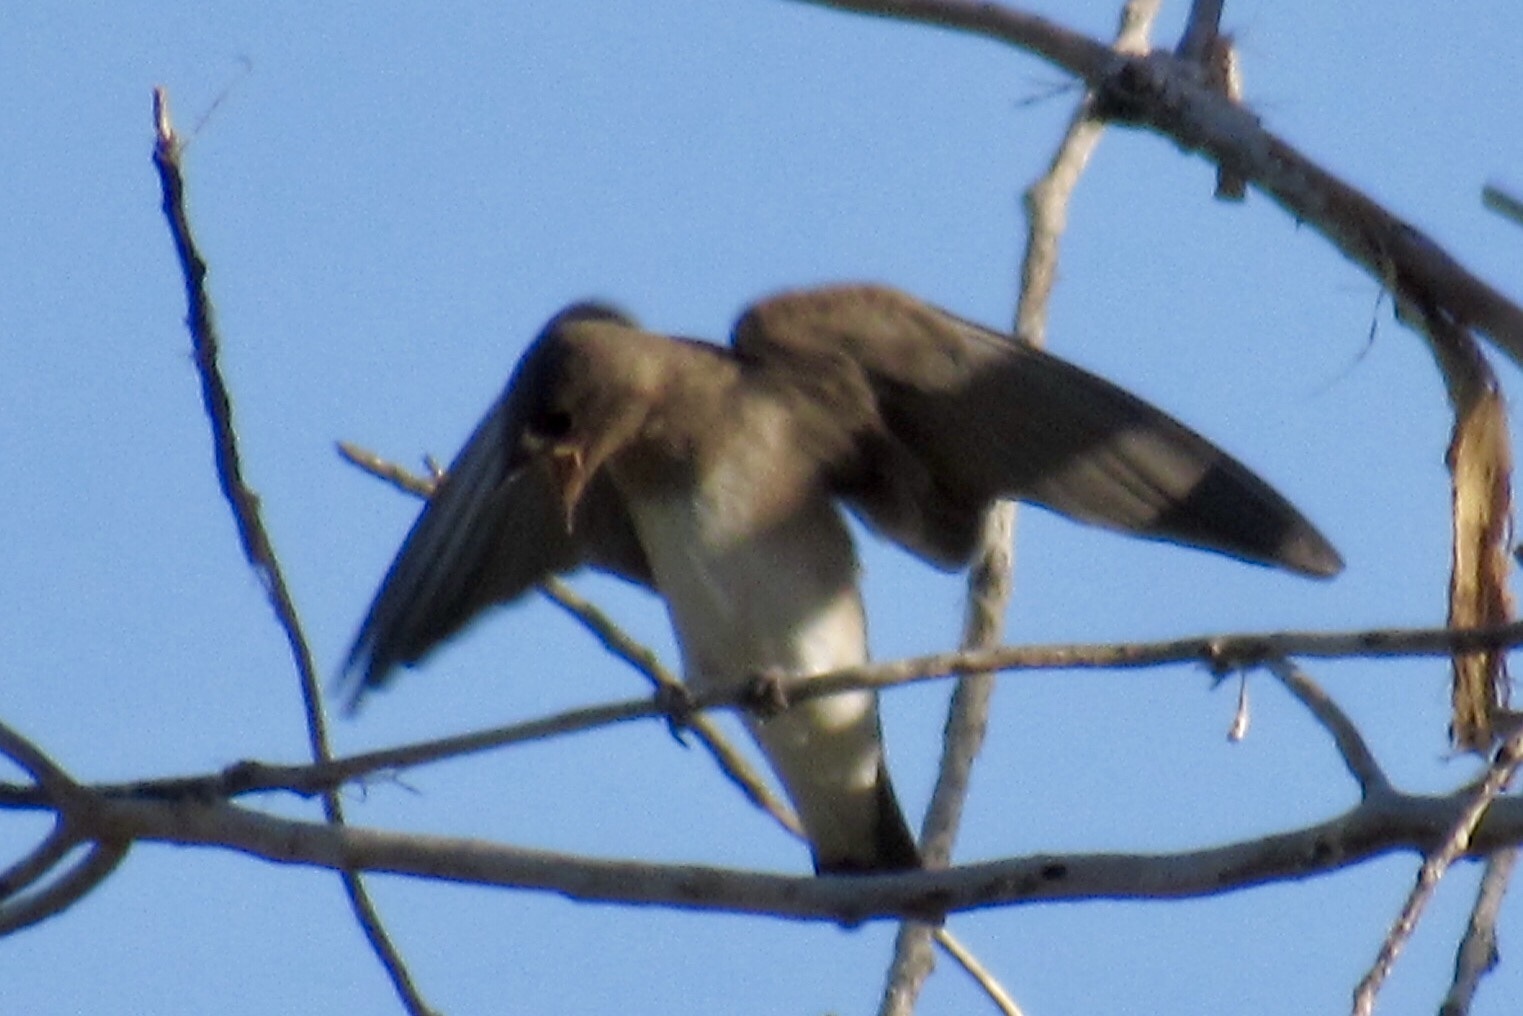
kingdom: Animalia
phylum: Chordata
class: Aves
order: Passeriformes
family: Hirundinidae
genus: Stelgidopteryx
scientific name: Stelgidopteryx serripennis
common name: Northern rough-winged swallow
